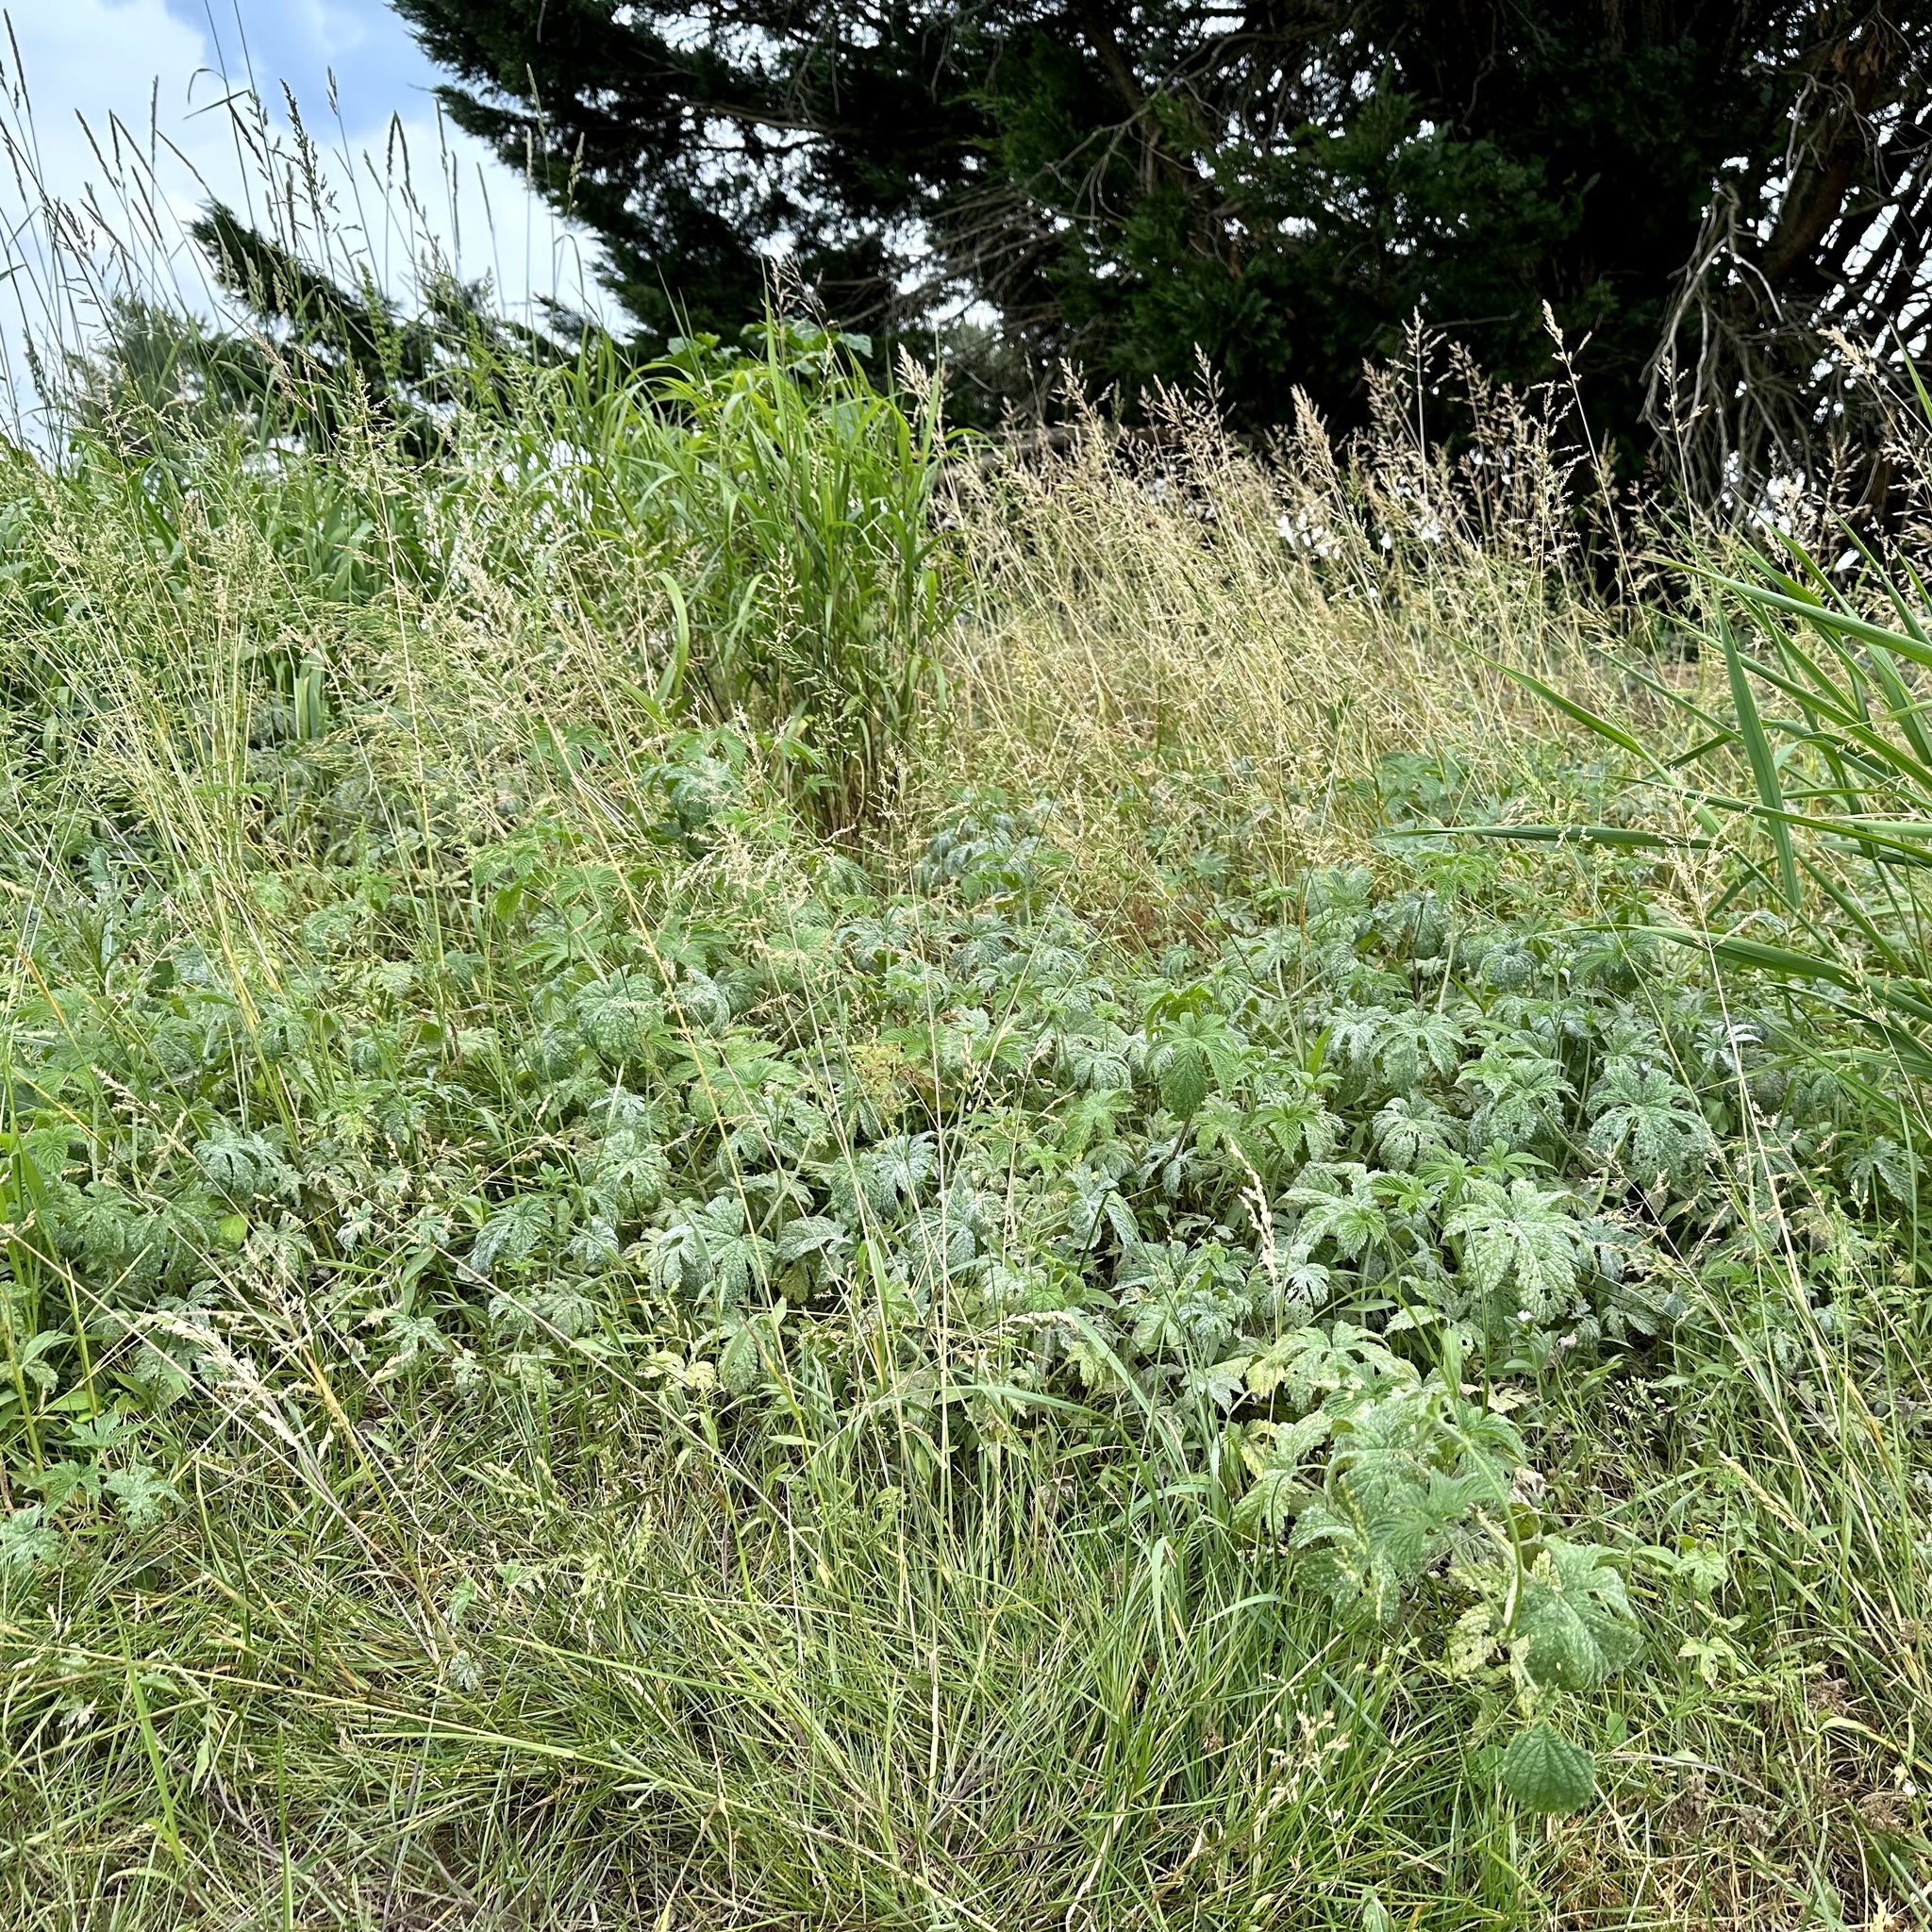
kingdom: Plantae
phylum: Tracheophyta
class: Magnoliopsida
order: Rosales
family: Cannabaceae
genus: Humulus
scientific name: Humulus scandens
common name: Japanese hop
